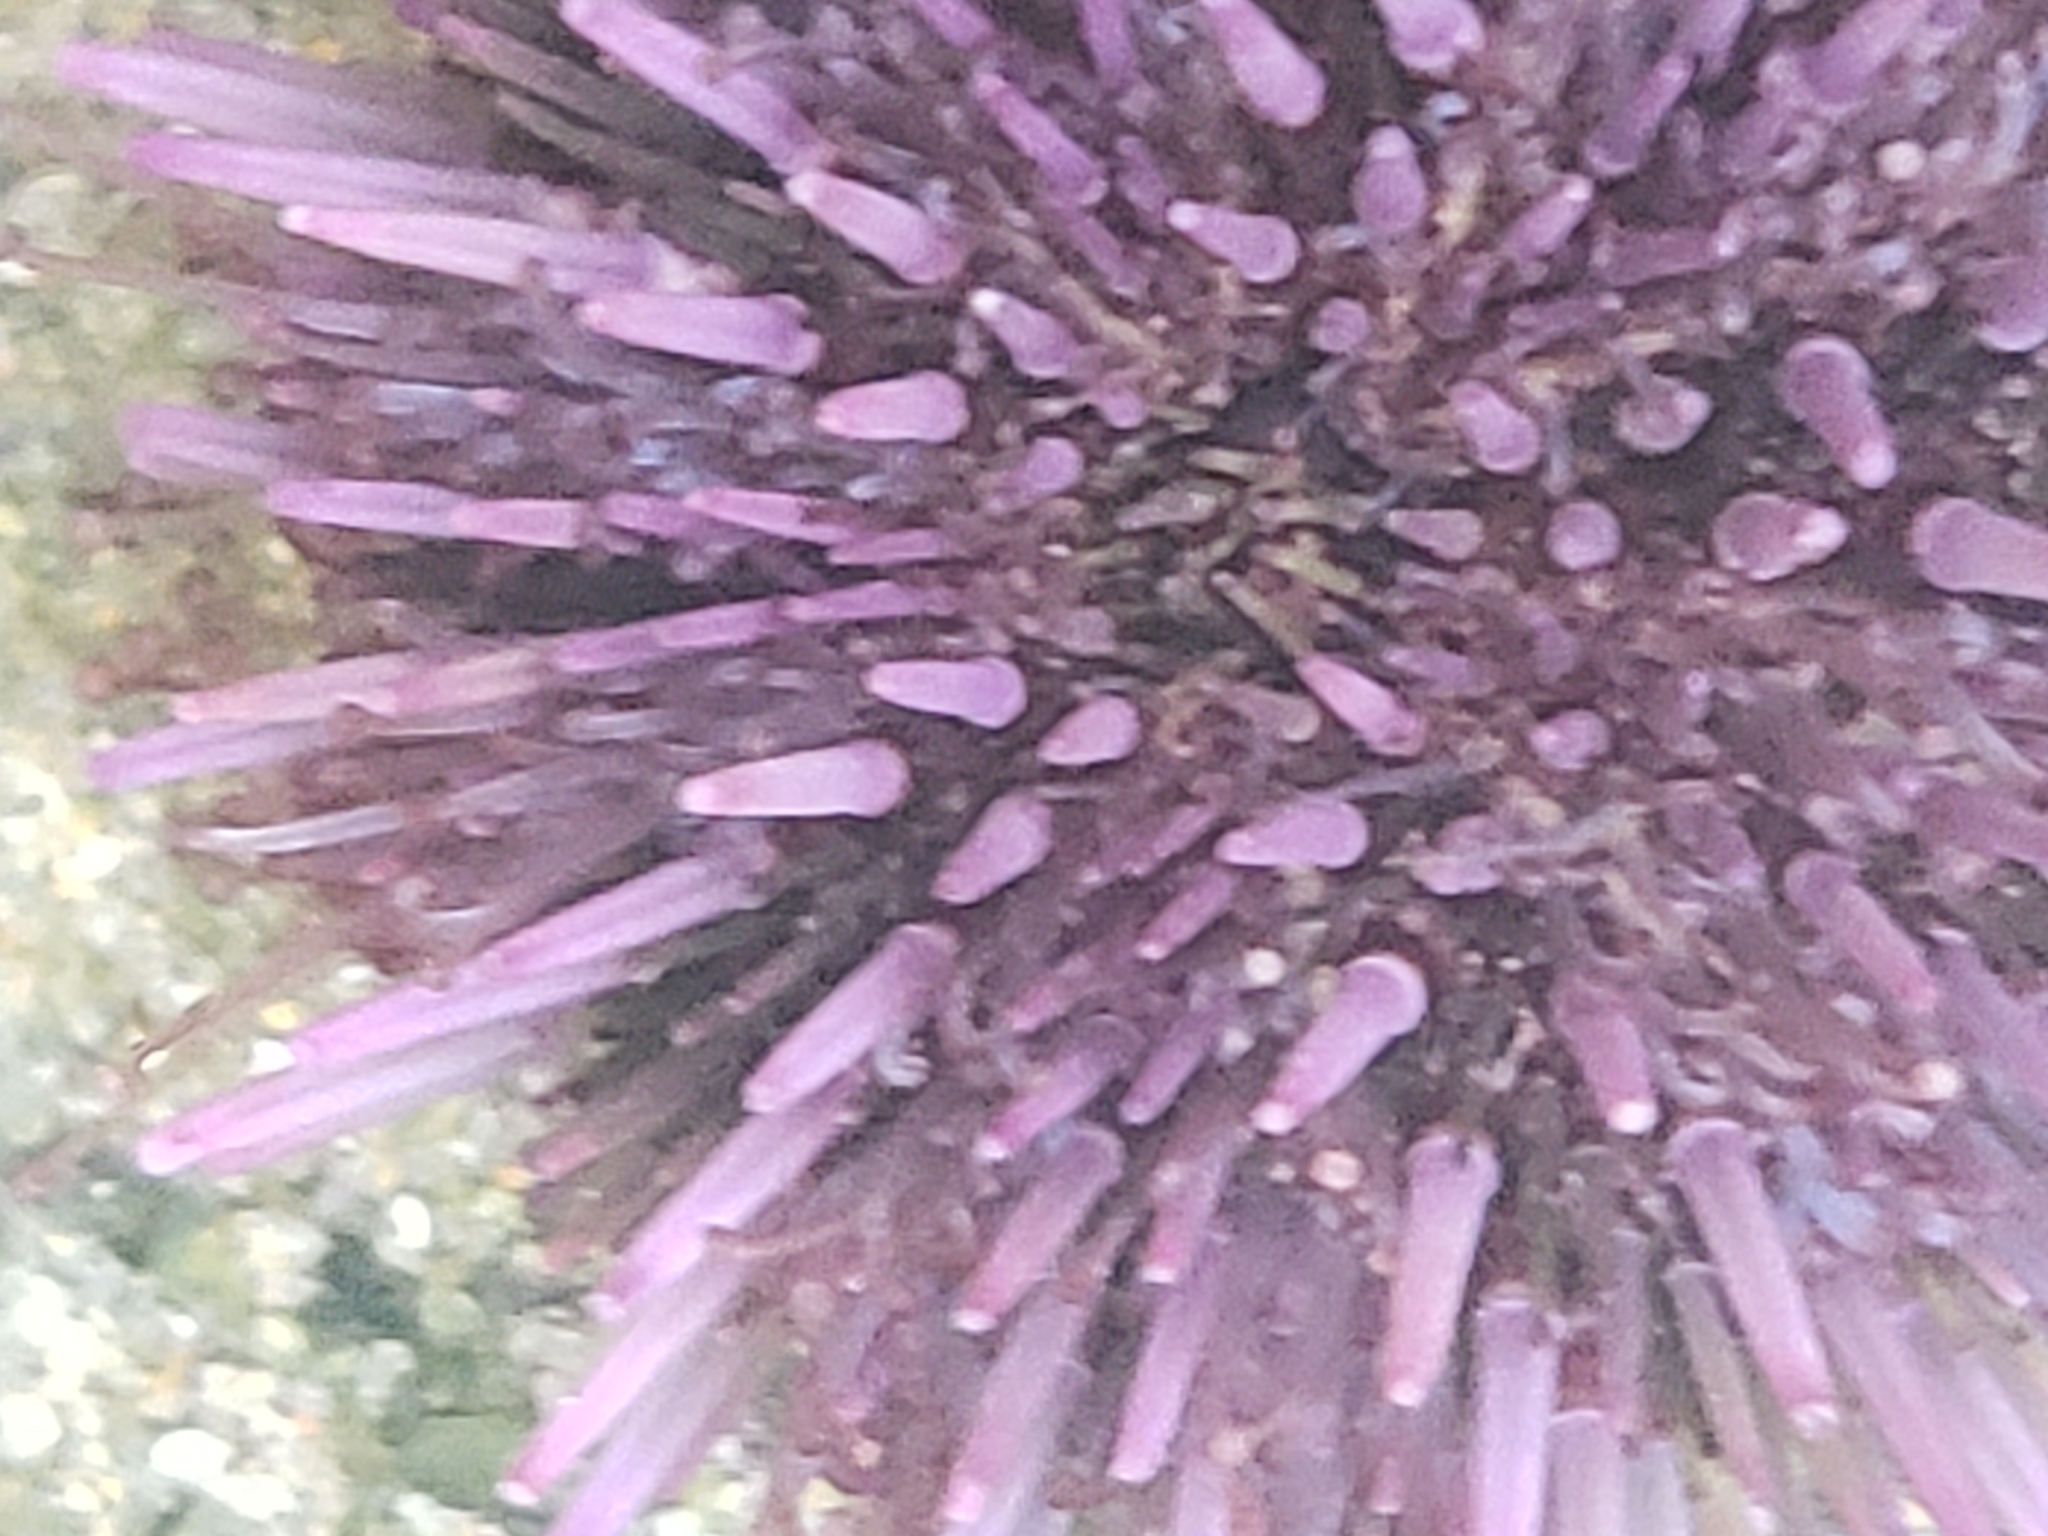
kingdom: Animalia
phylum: Echinodermata
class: Echinoidea
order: Camarodonta
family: Strongylocentrotidae
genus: Strongylocentrotus
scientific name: Strongylocentrotus purpuratus
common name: Purple sea urchin
